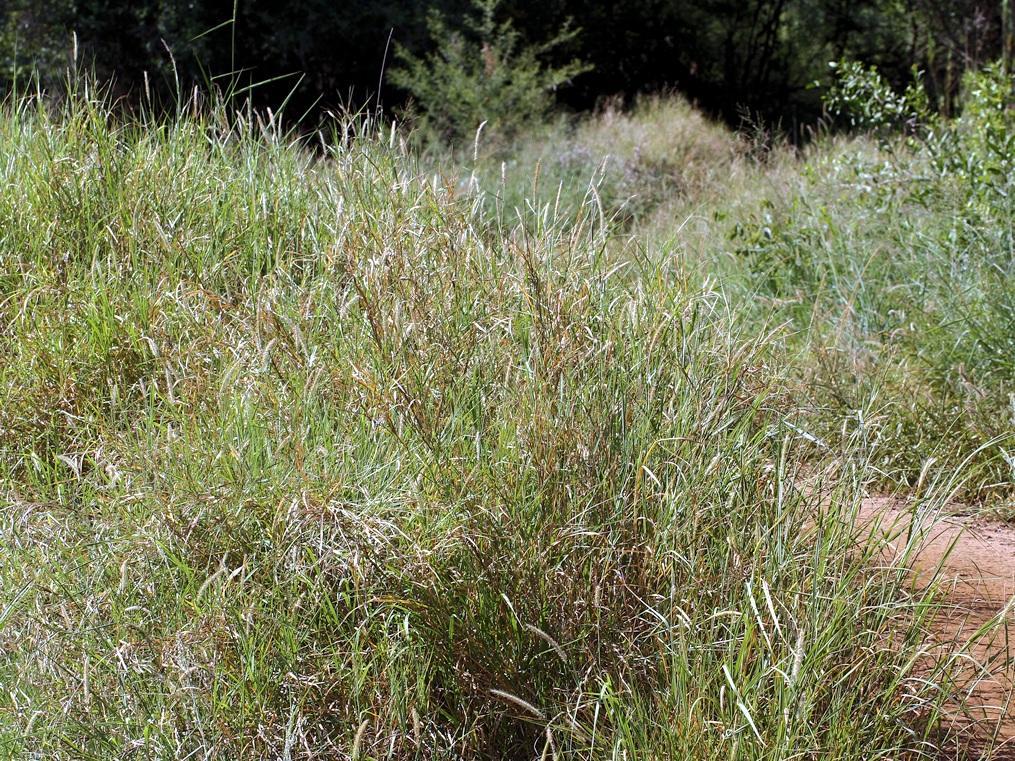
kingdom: Plantae
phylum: Tracheophyta
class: Liliopsida
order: Poales
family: Poaceae
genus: Cenchrus
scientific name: Cenchrus ciliaris
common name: Buffelgrass
